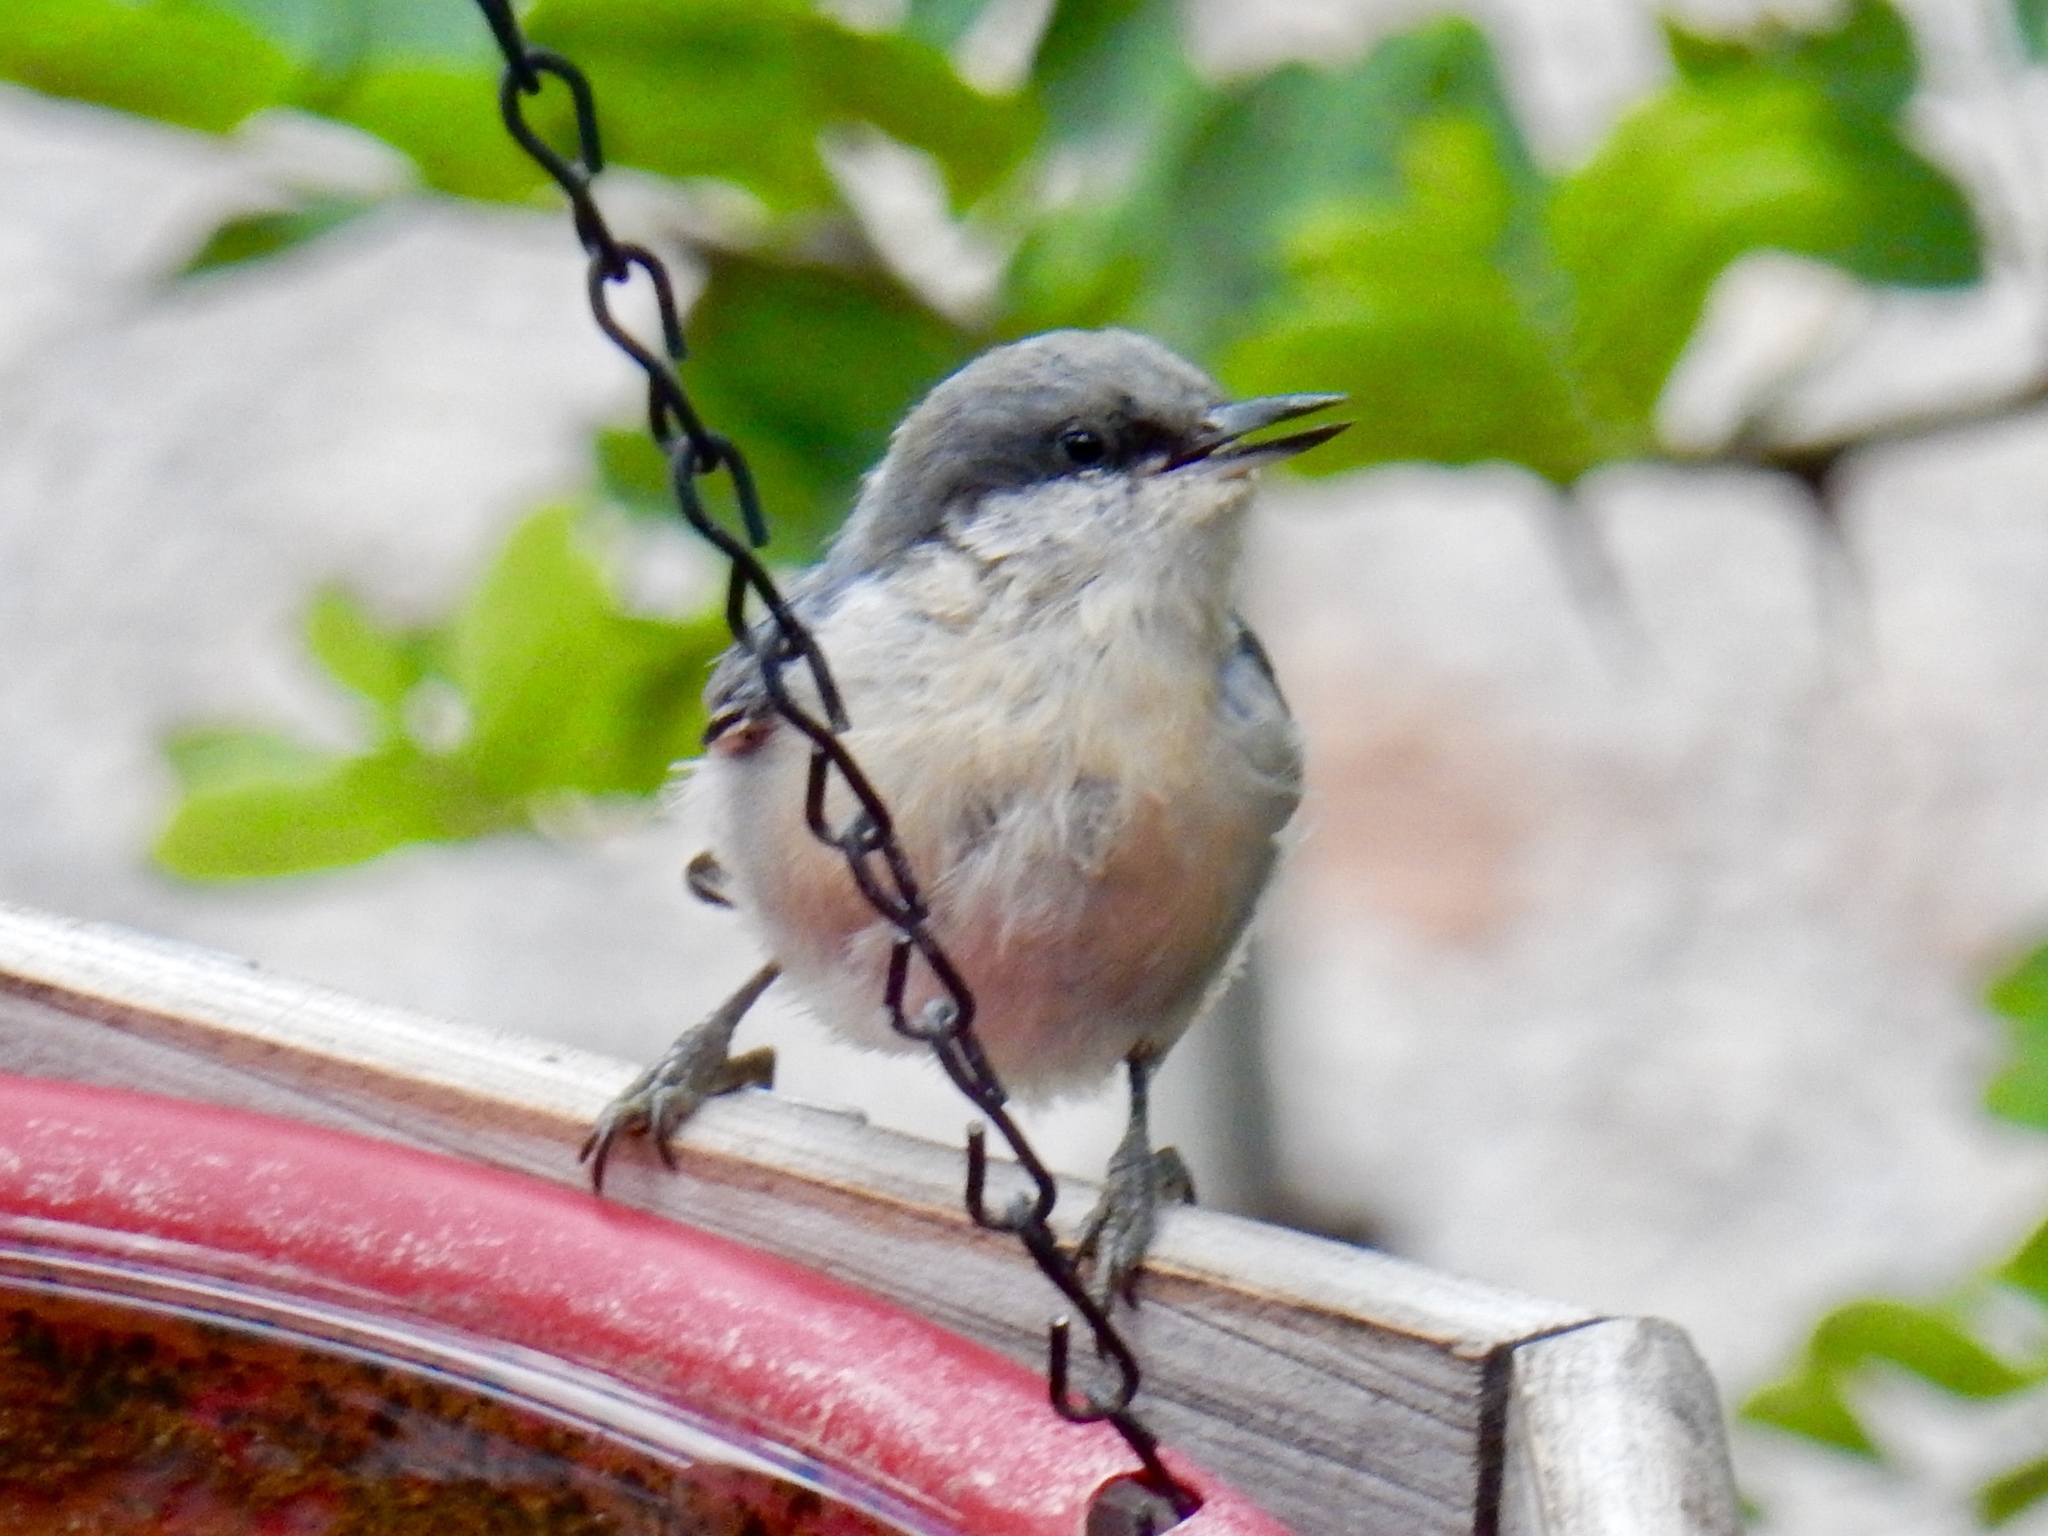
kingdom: Animalia
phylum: Chordata
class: Aves
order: Passeriformes
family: Sittidae
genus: Sitta
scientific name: Sitta pygmaea
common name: Pygmy nuthatch
